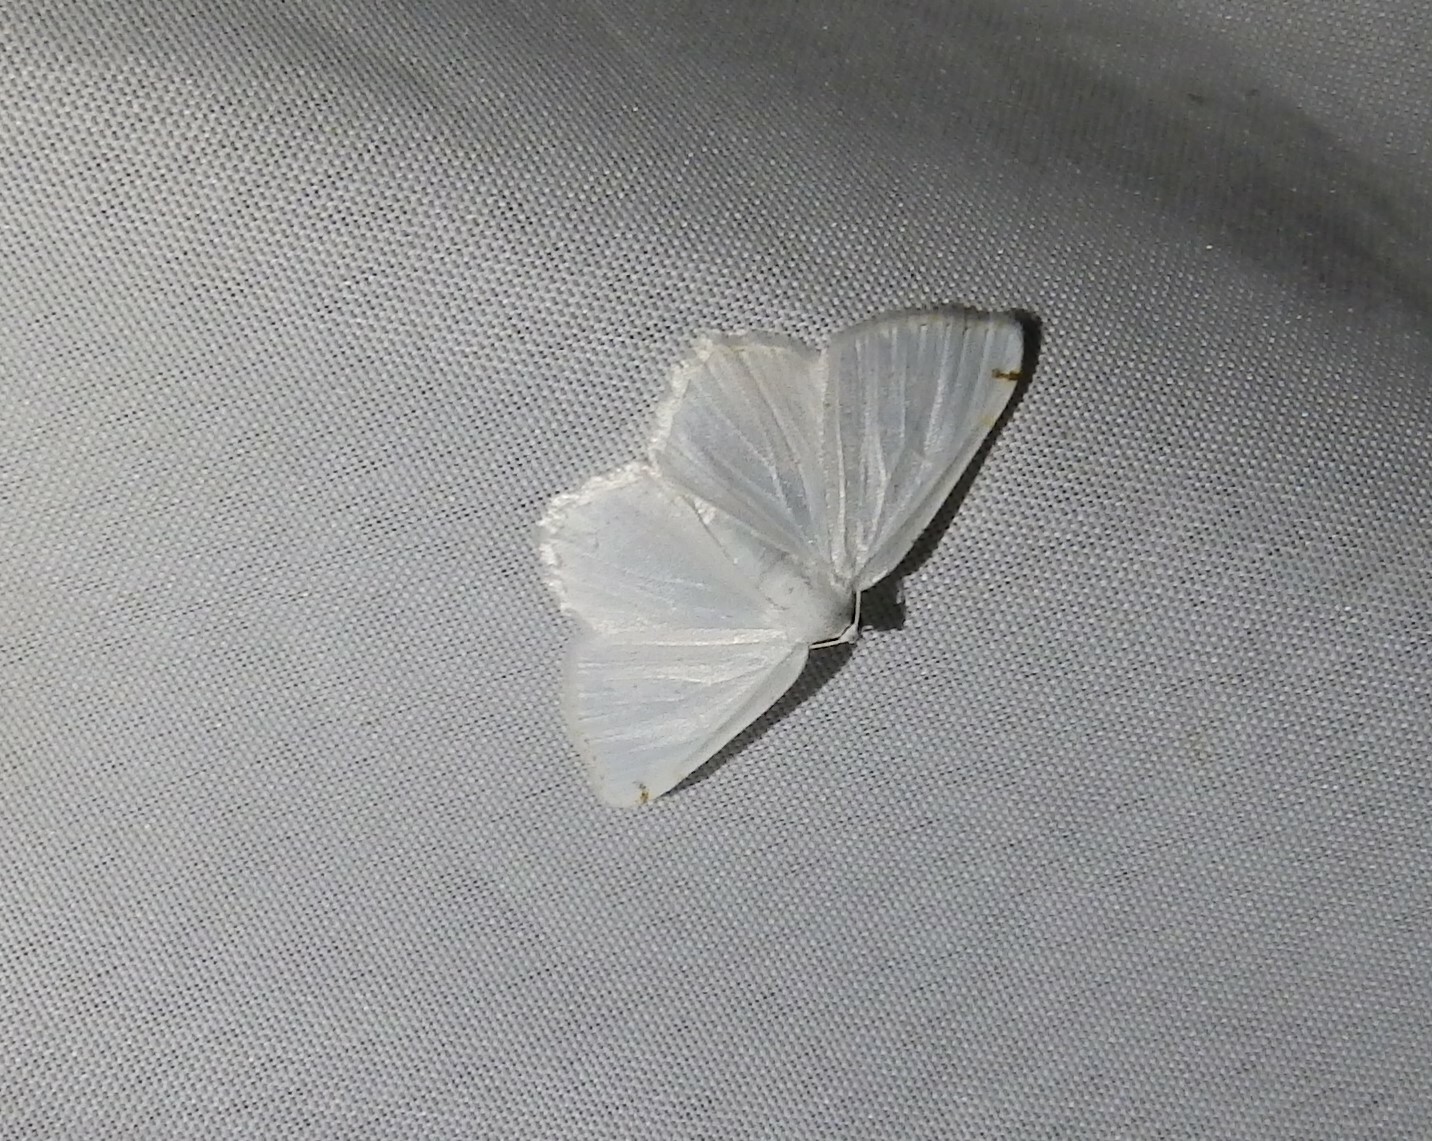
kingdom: Animalia
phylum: Arthropoda
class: Insecta
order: Lepidoptera
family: Geometridae
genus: Macaria
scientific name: Macaria pustularia
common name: Lesser maple spanworm moth
